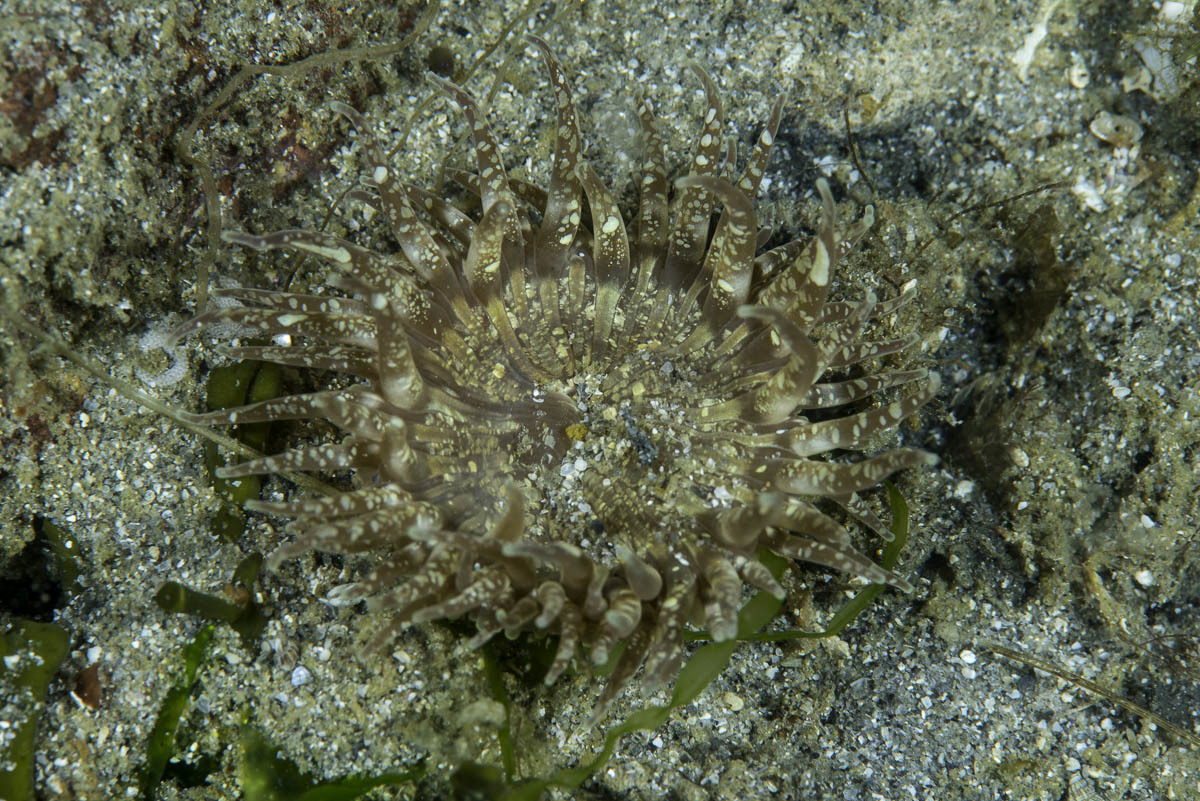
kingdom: Animalia
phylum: Cnidaria
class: Anthozoa
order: Actiniaria
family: Actiniidae
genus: Anthopleura
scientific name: Anthopleura ballii
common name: Red speckled anemone
